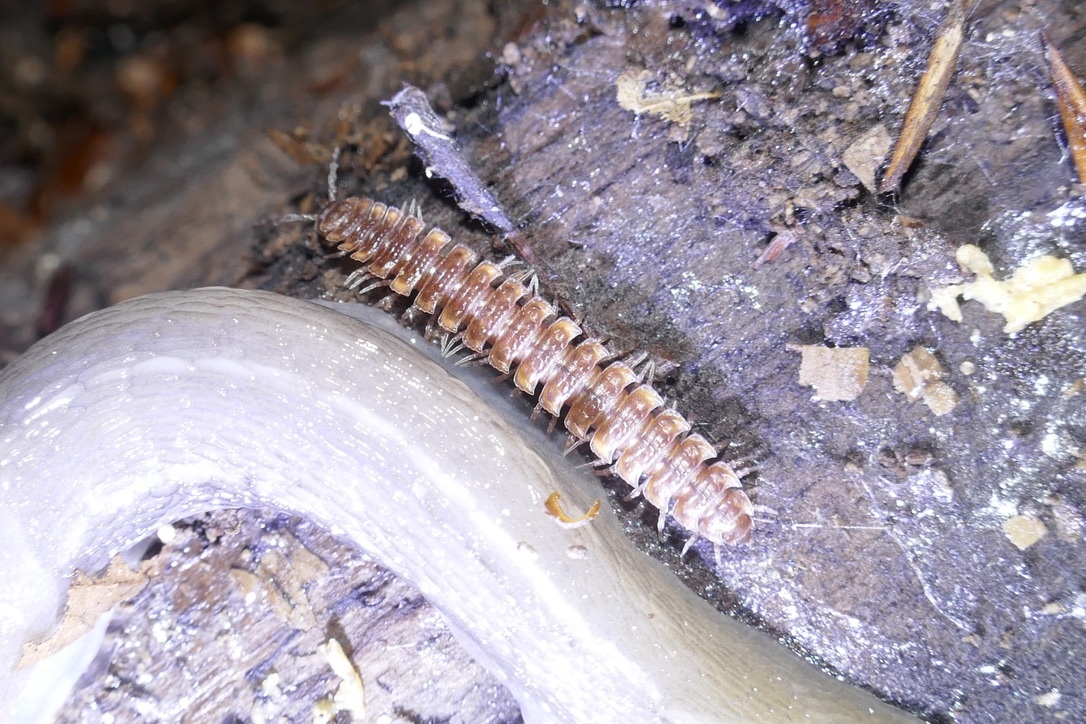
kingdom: Animalia
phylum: Arthropoda
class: Diplopoda
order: Polydesmida
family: Polydesmidae
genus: Polydesmus
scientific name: Polydesmus complanatus
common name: Flat-backed millipede
